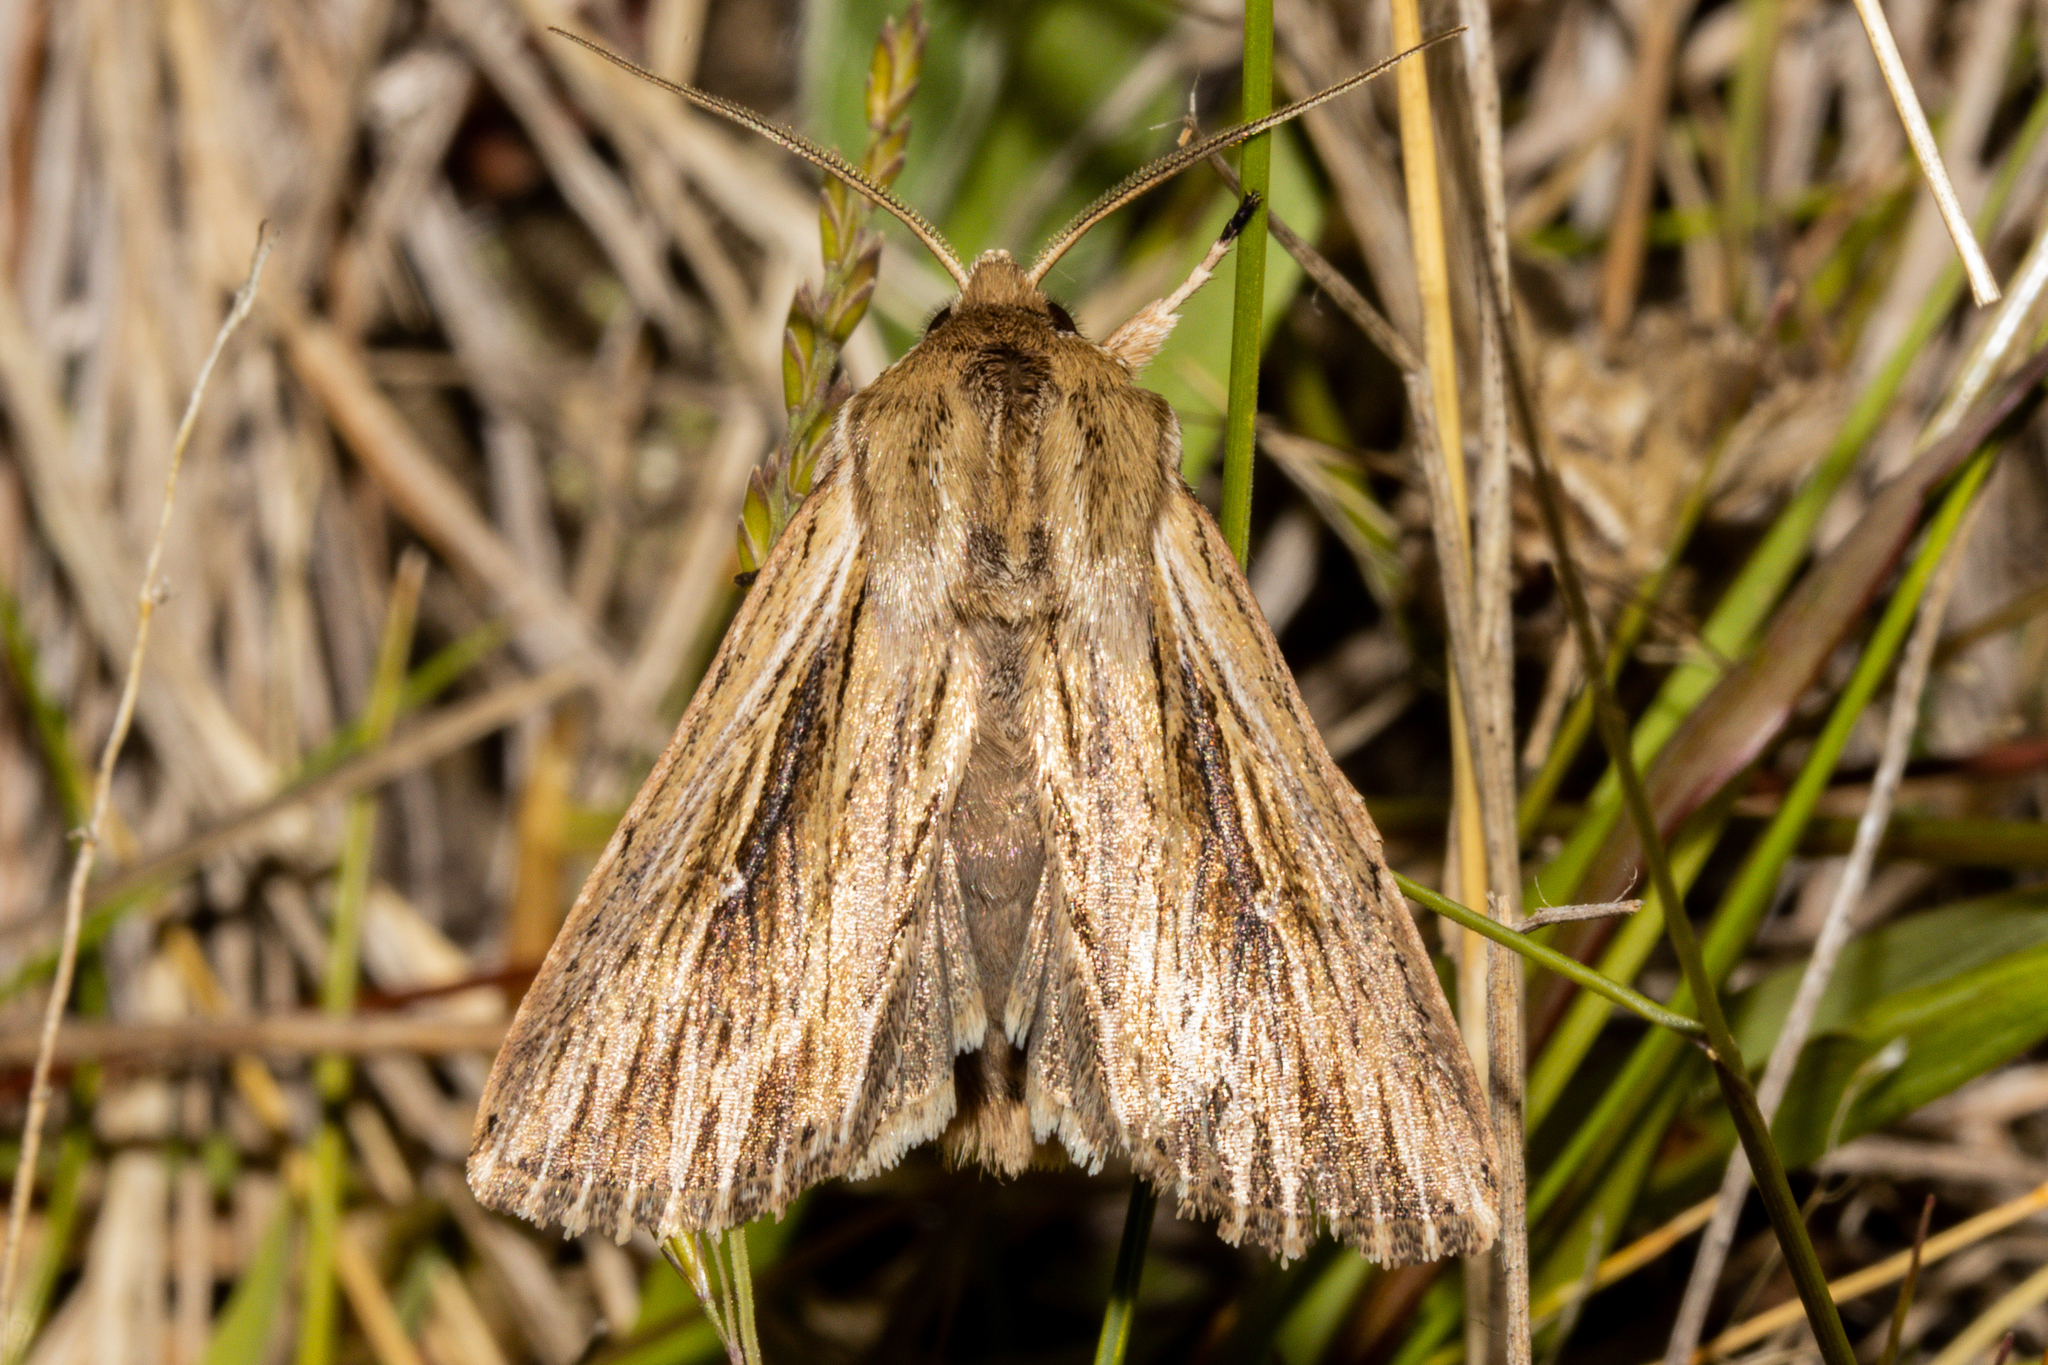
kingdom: Animalia
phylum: Arthropoda
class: Insecta
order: Lepidoptera
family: Noctuidae
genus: Persectania
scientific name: Persectania aversa
